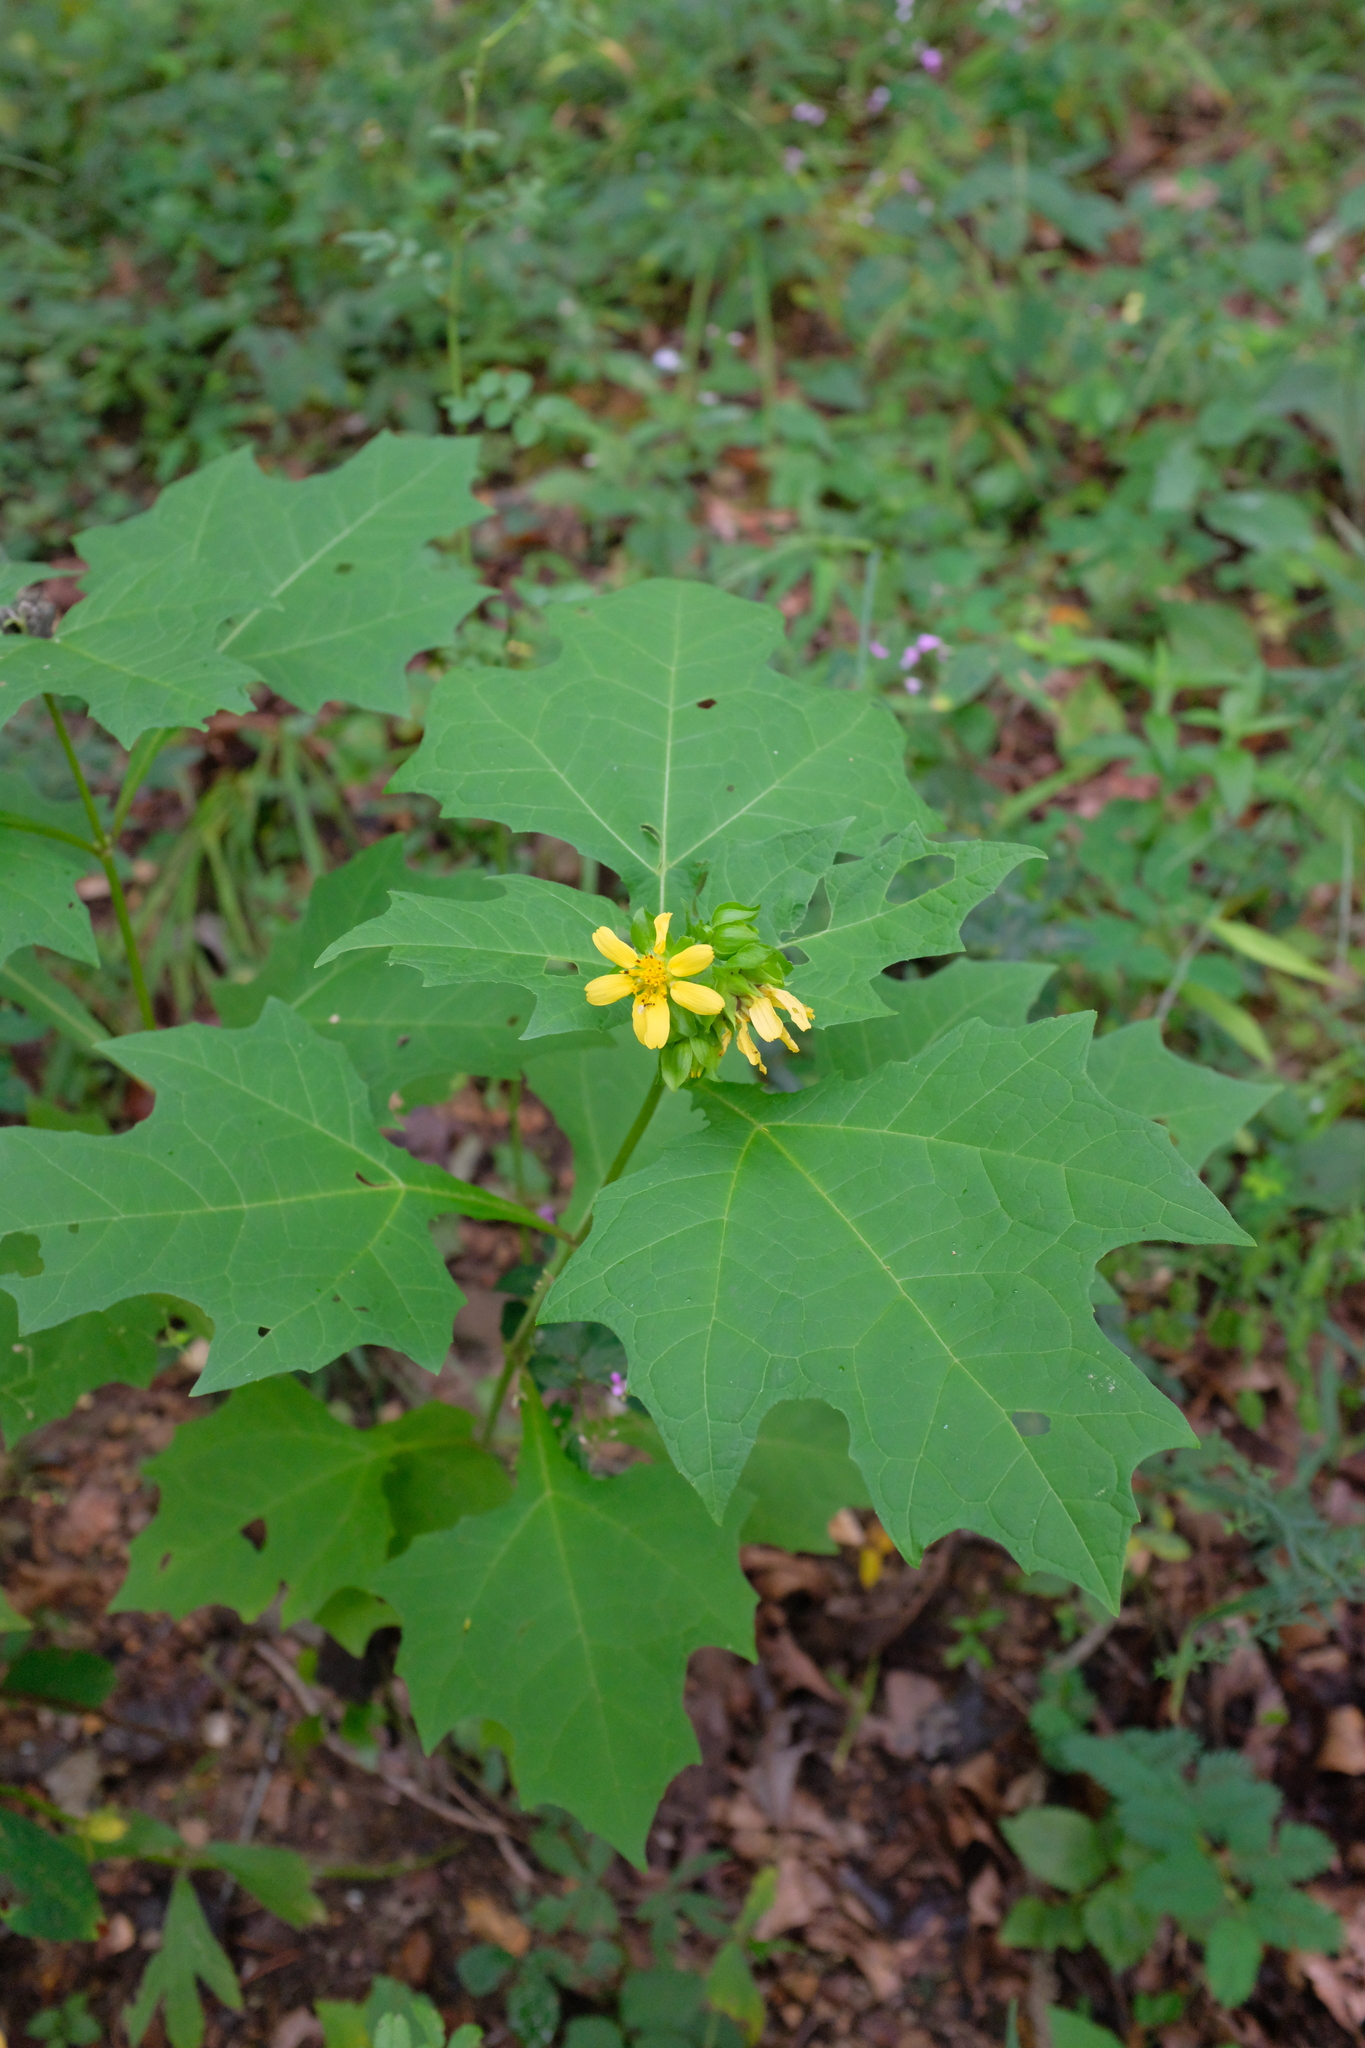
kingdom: Plantae
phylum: Tracheophyta
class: Magnoliopsida
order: Asterales
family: Asteraceae
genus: Smallanthus
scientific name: Smallanthus uvedalia
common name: Bear's-foot
